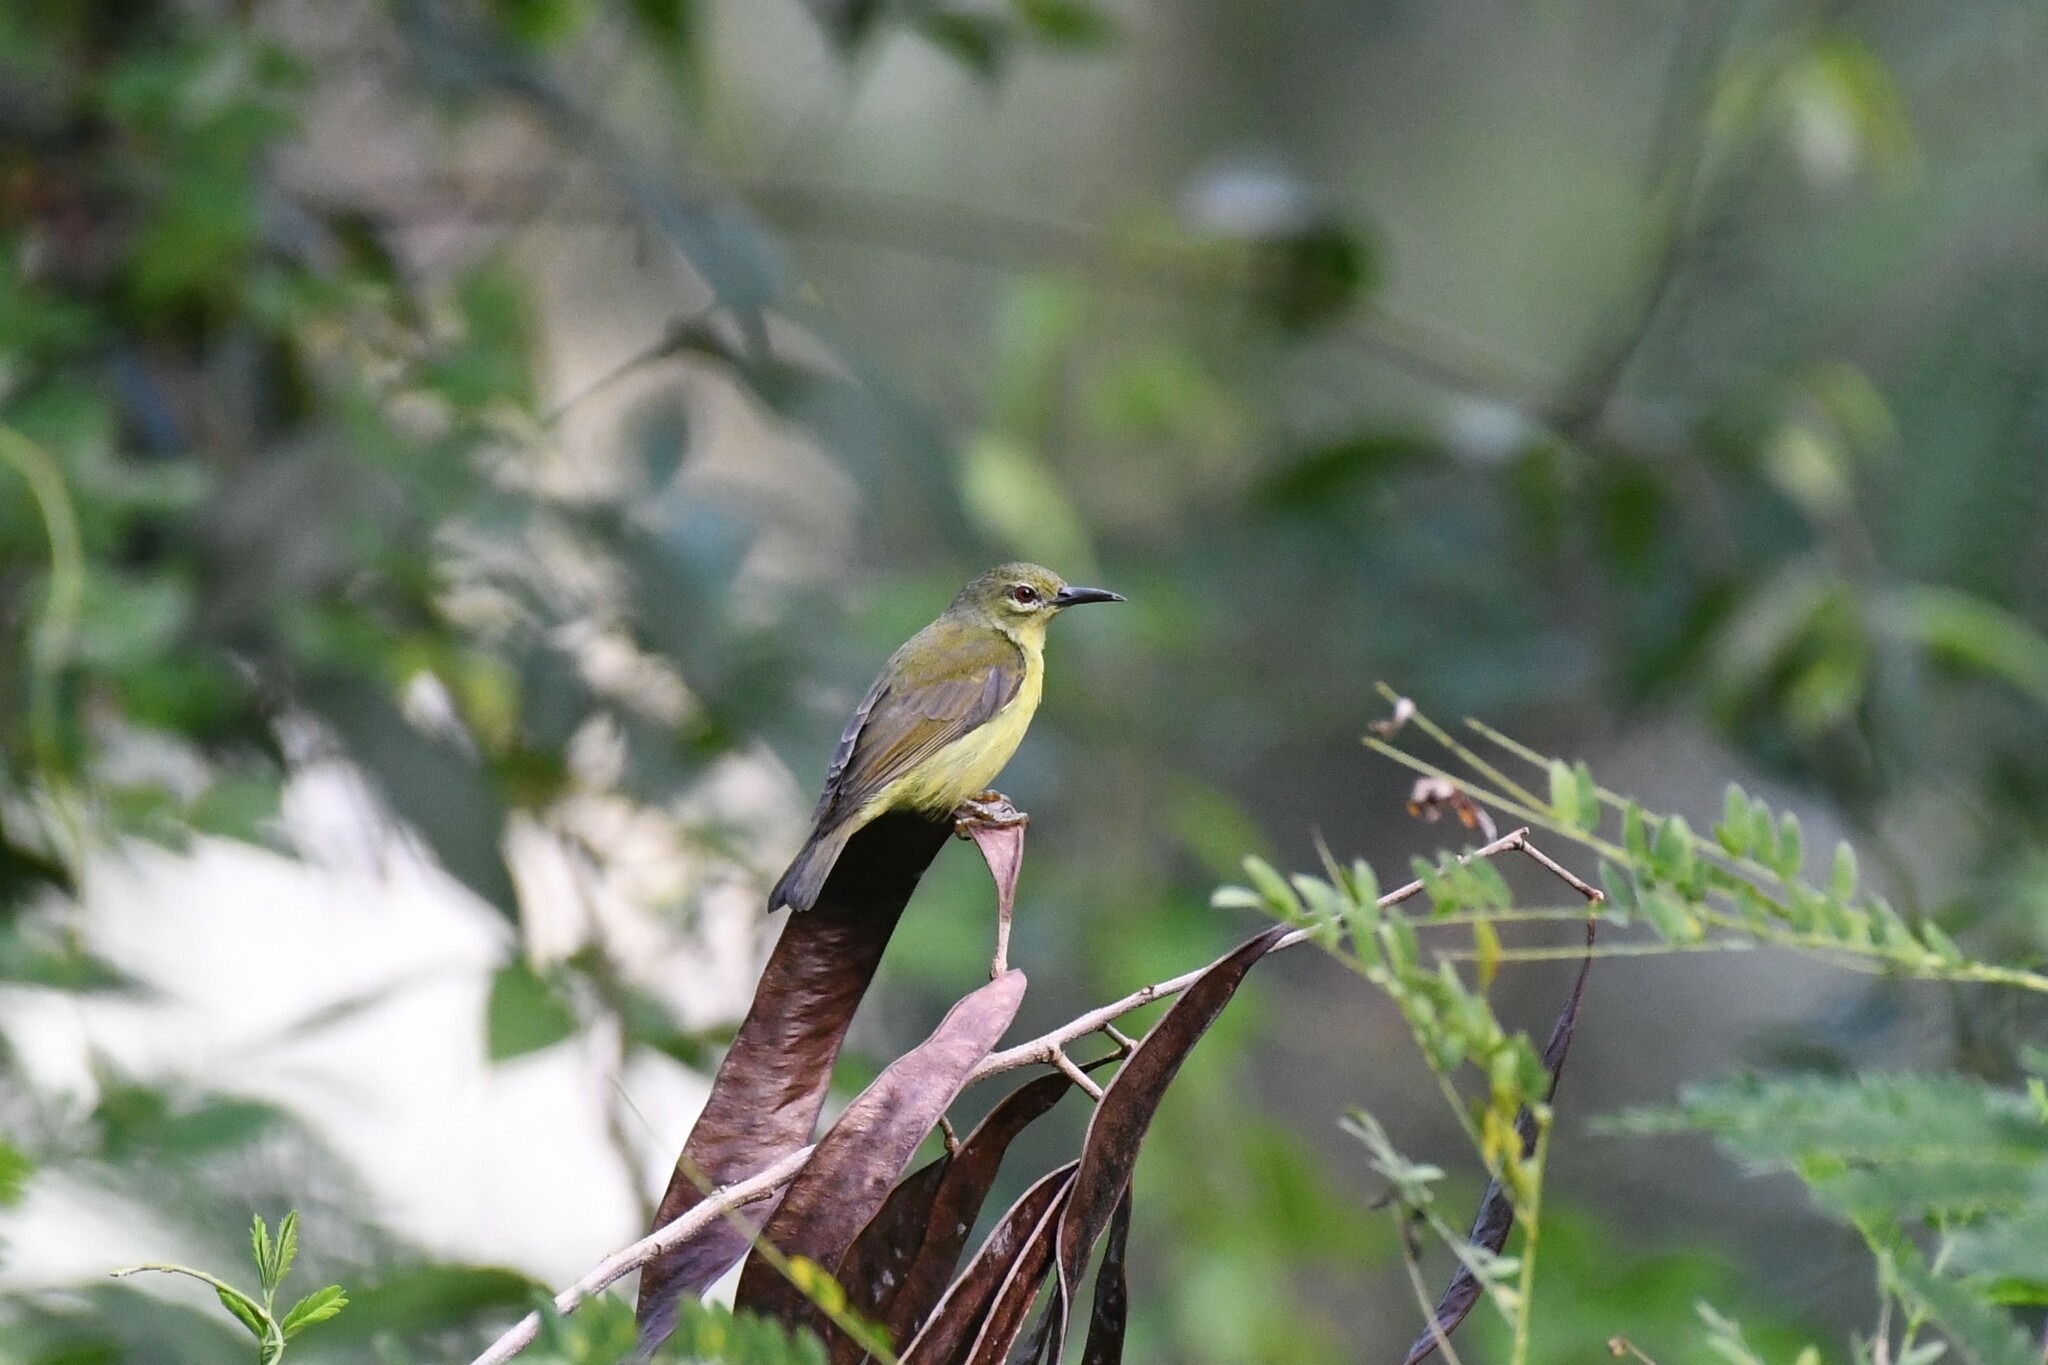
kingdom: Animalia
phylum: Chordata
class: Aves
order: Passeriformes
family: Nectariniidae
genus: Anthreptes
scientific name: Anthreptes malacensis
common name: Brown-throated sunbird
